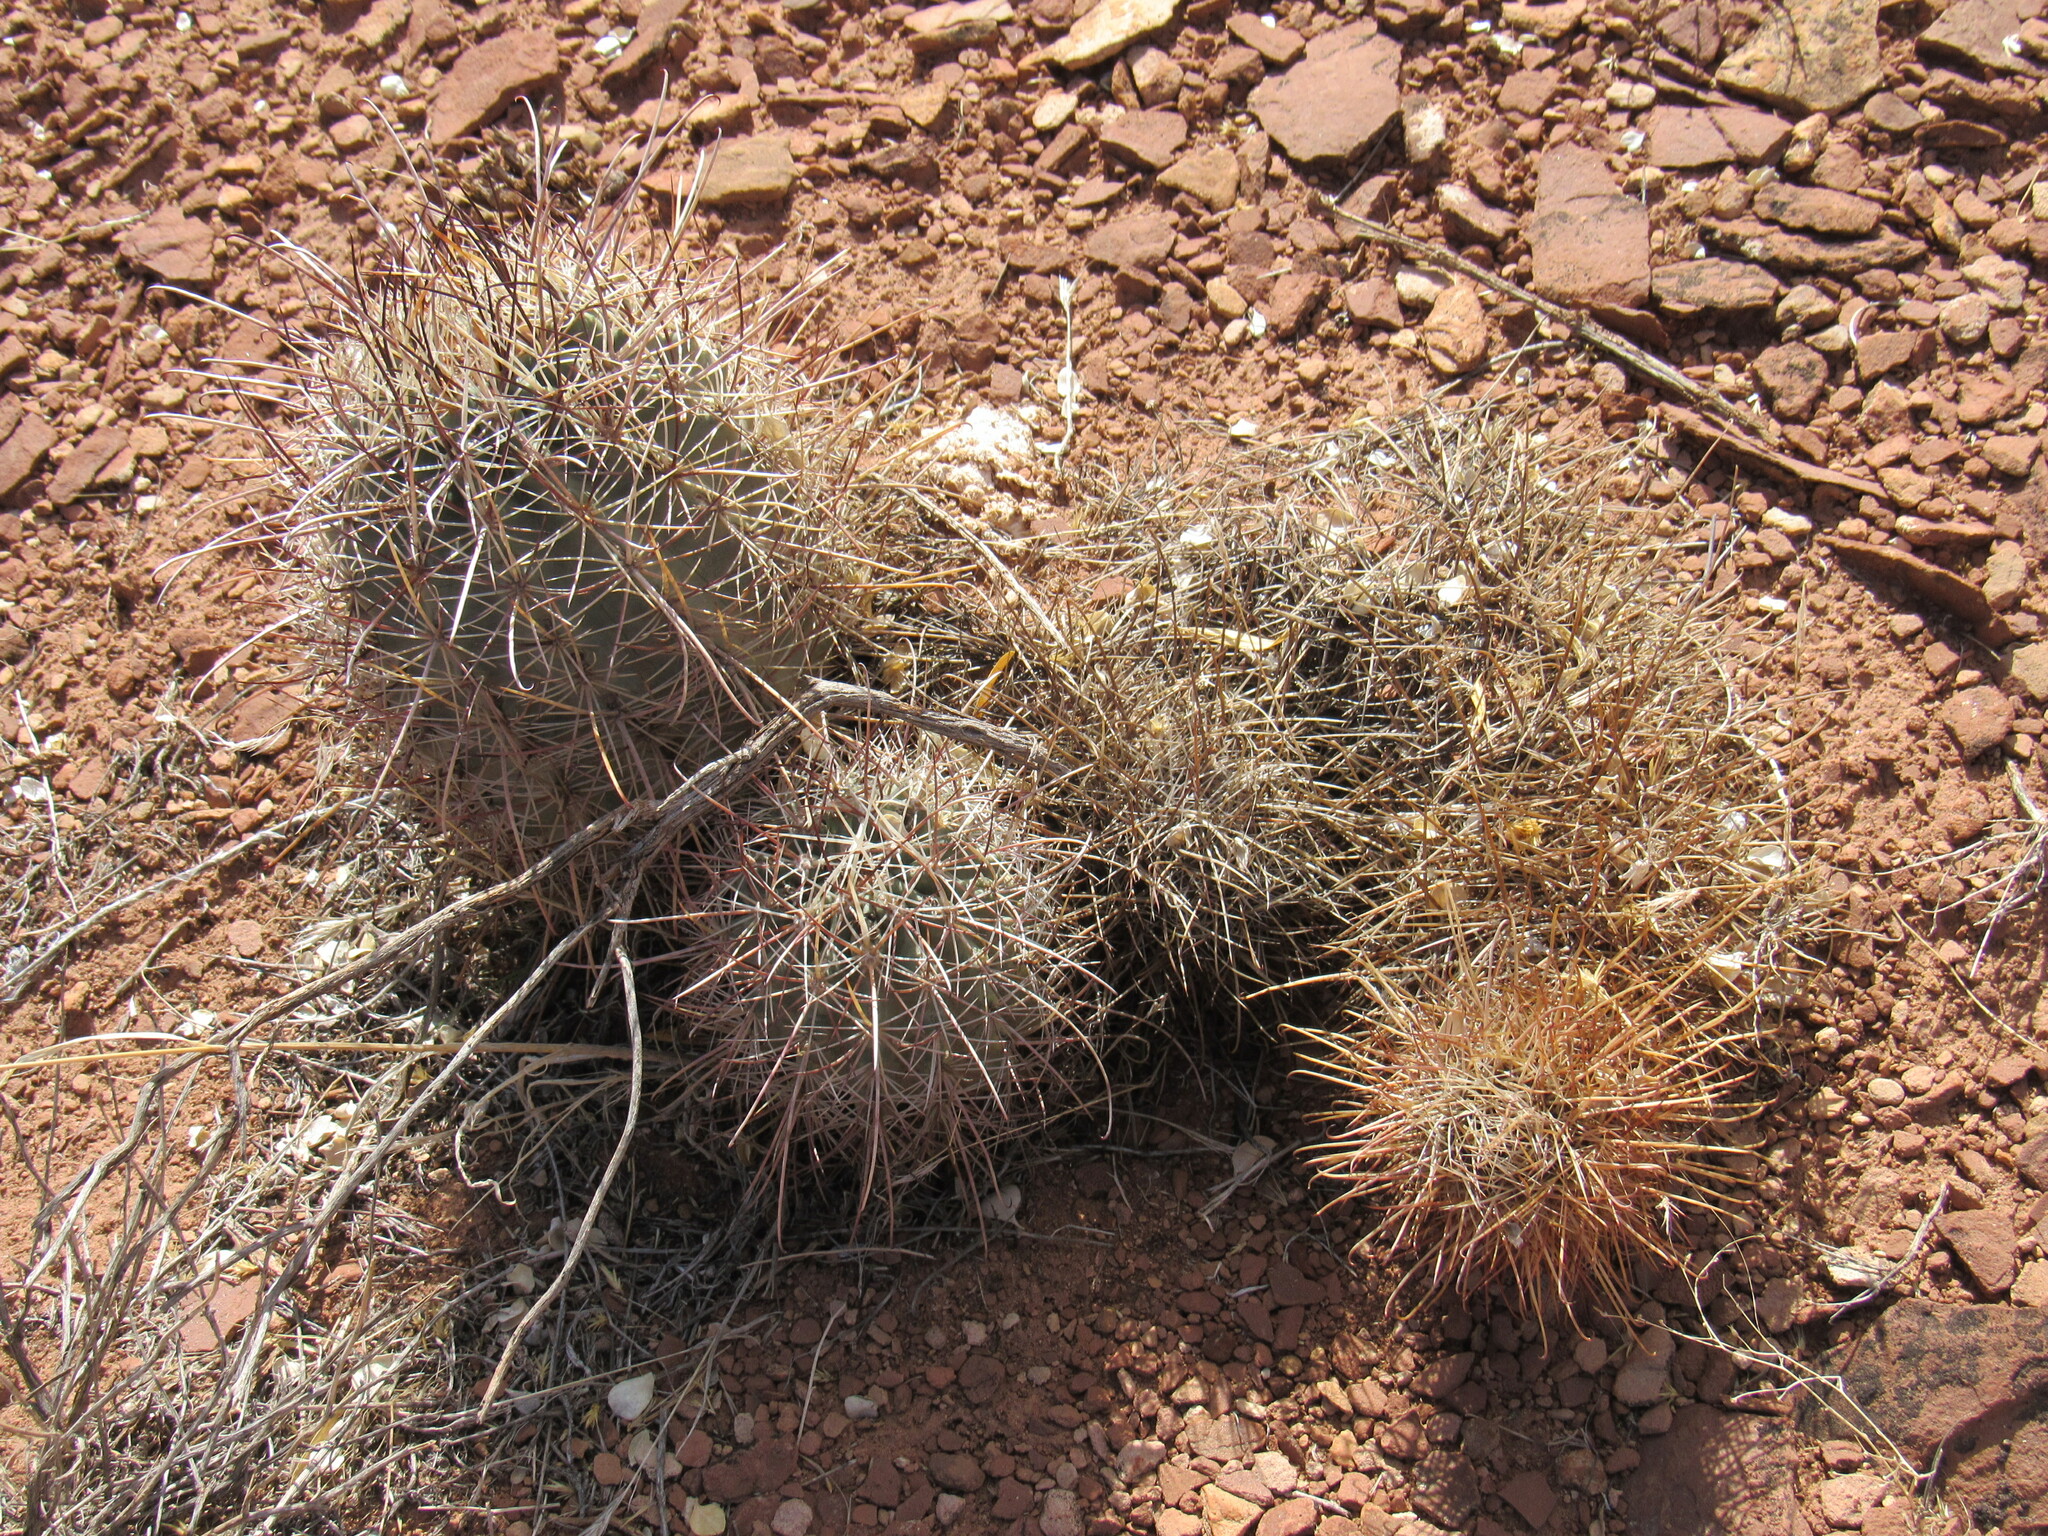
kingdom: Plantae
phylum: Tracheophyta
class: Magnoliopsida
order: Caryophyllales
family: Cactaceae
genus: Sclerocactus
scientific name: Sclerocactus parviflorus
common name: Small-flower fishhook cactus
